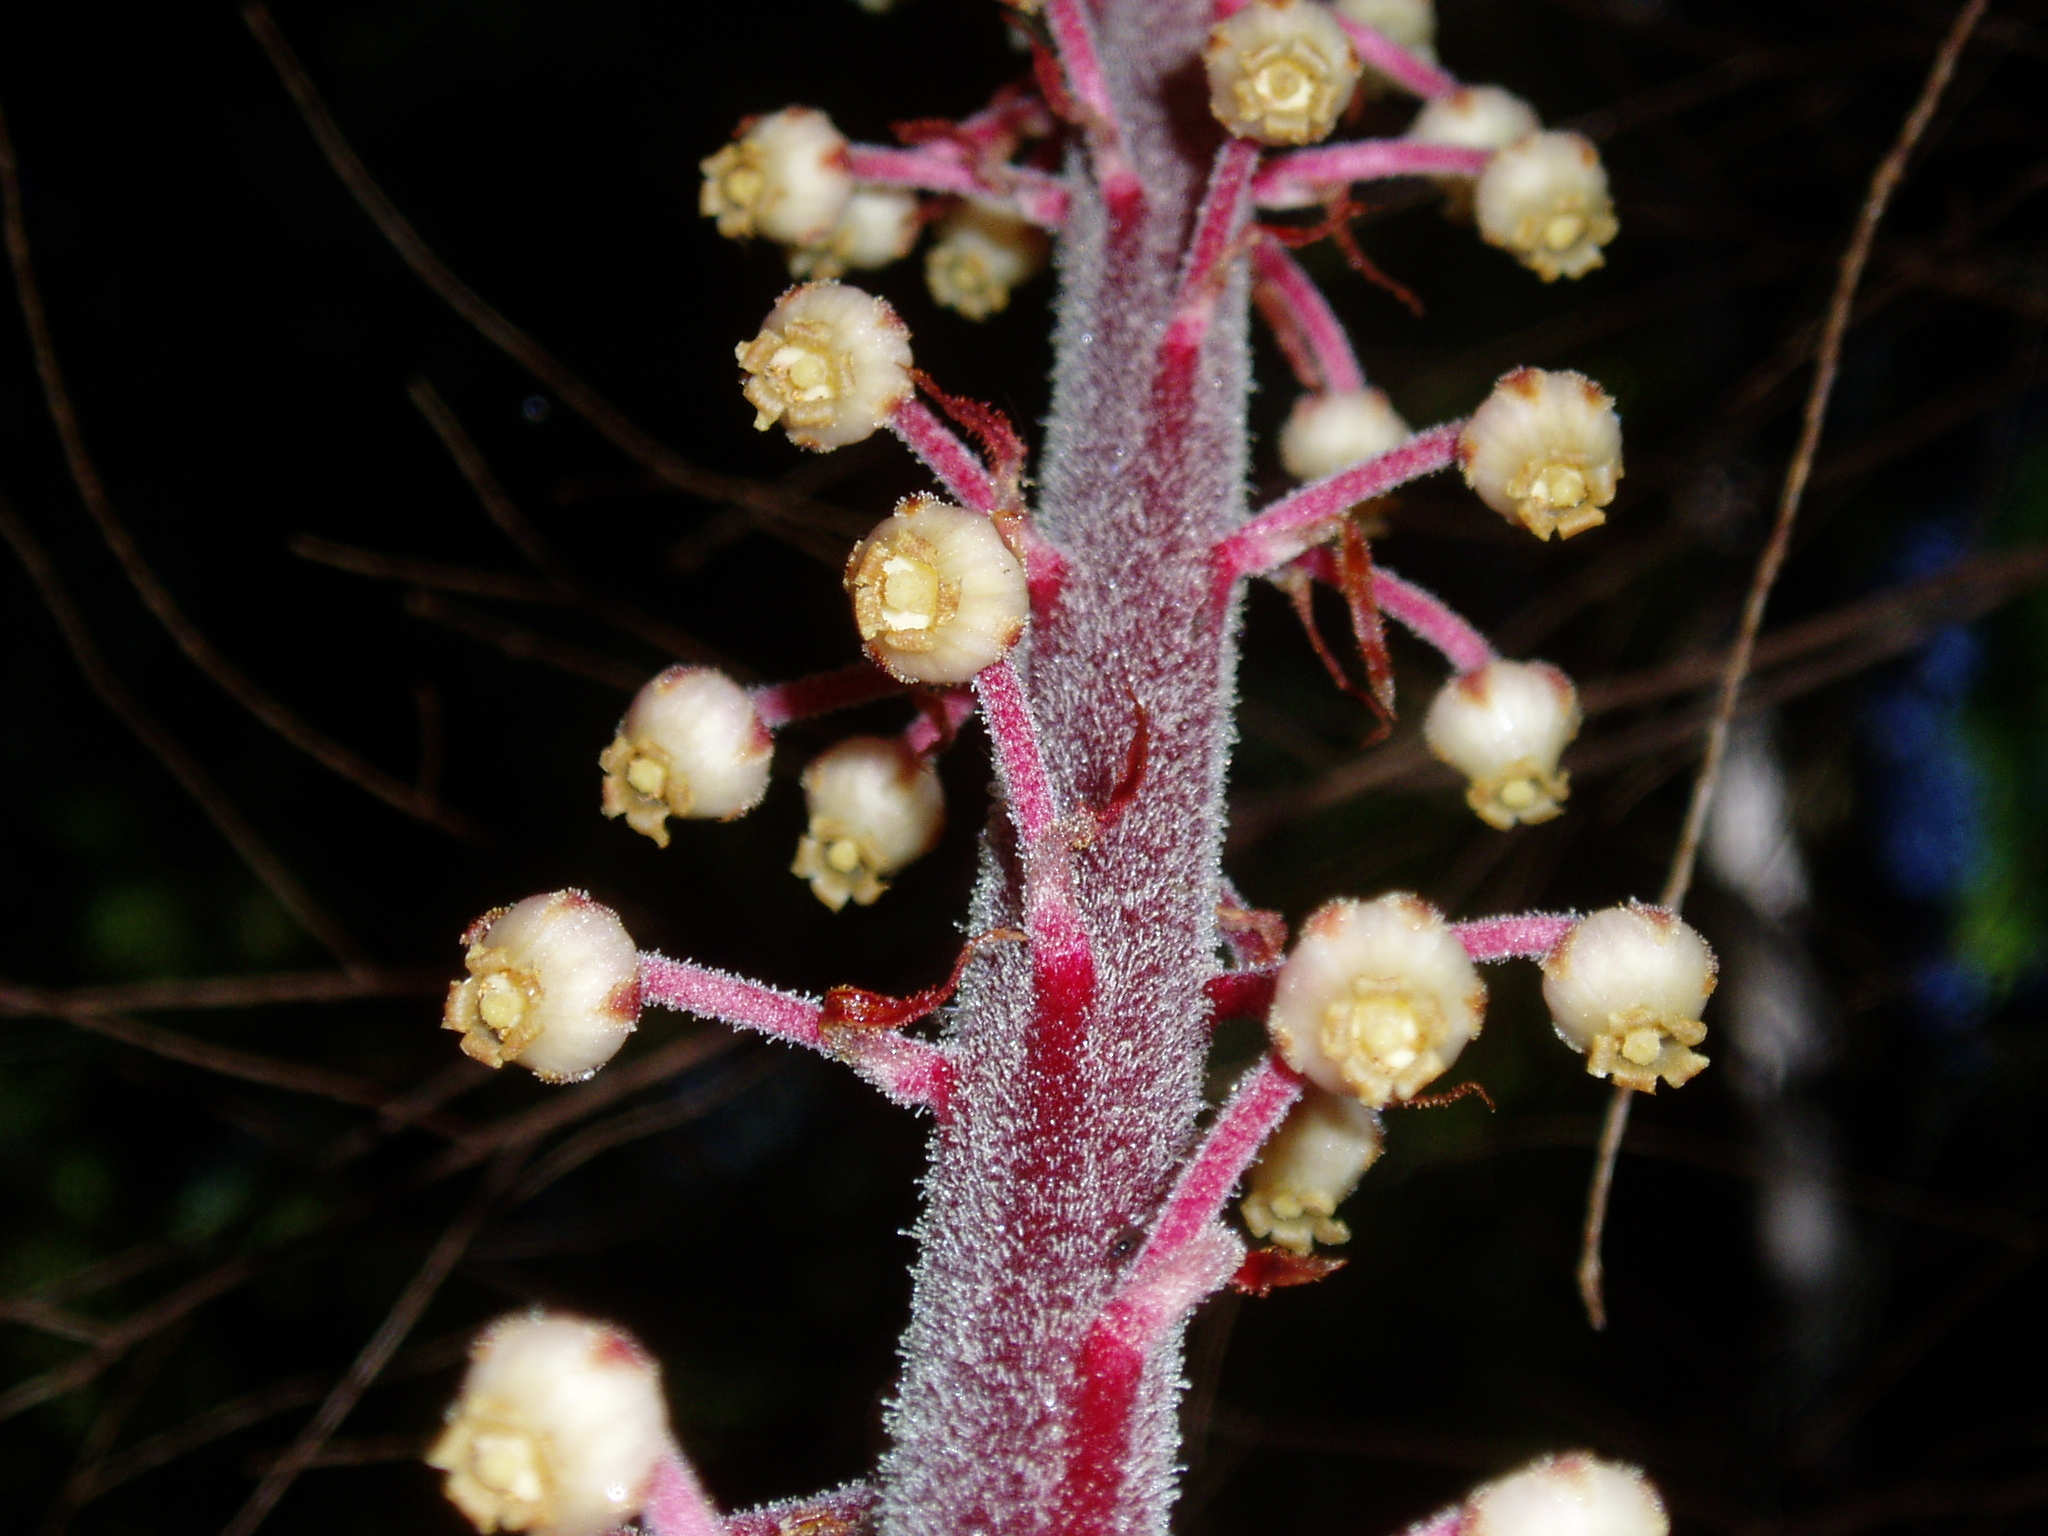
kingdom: Plantae
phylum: Tracheophyta
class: Magnoliopsida
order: Ericales
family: Ericaceae
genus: Pterospora
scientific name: Pterospora andromedea
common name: Giant bird's-nest
